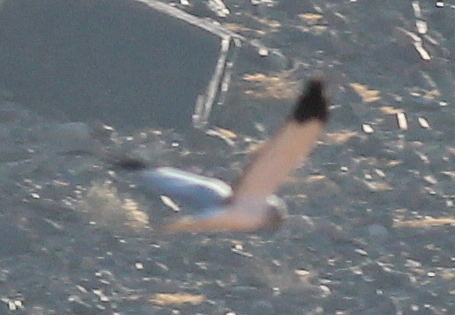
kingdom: Animalia
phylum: Chordata
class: Aves
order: Accipitriformes
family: Accipitridae
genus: Circus
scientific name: Circus cyaneus
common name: Hen harrier
